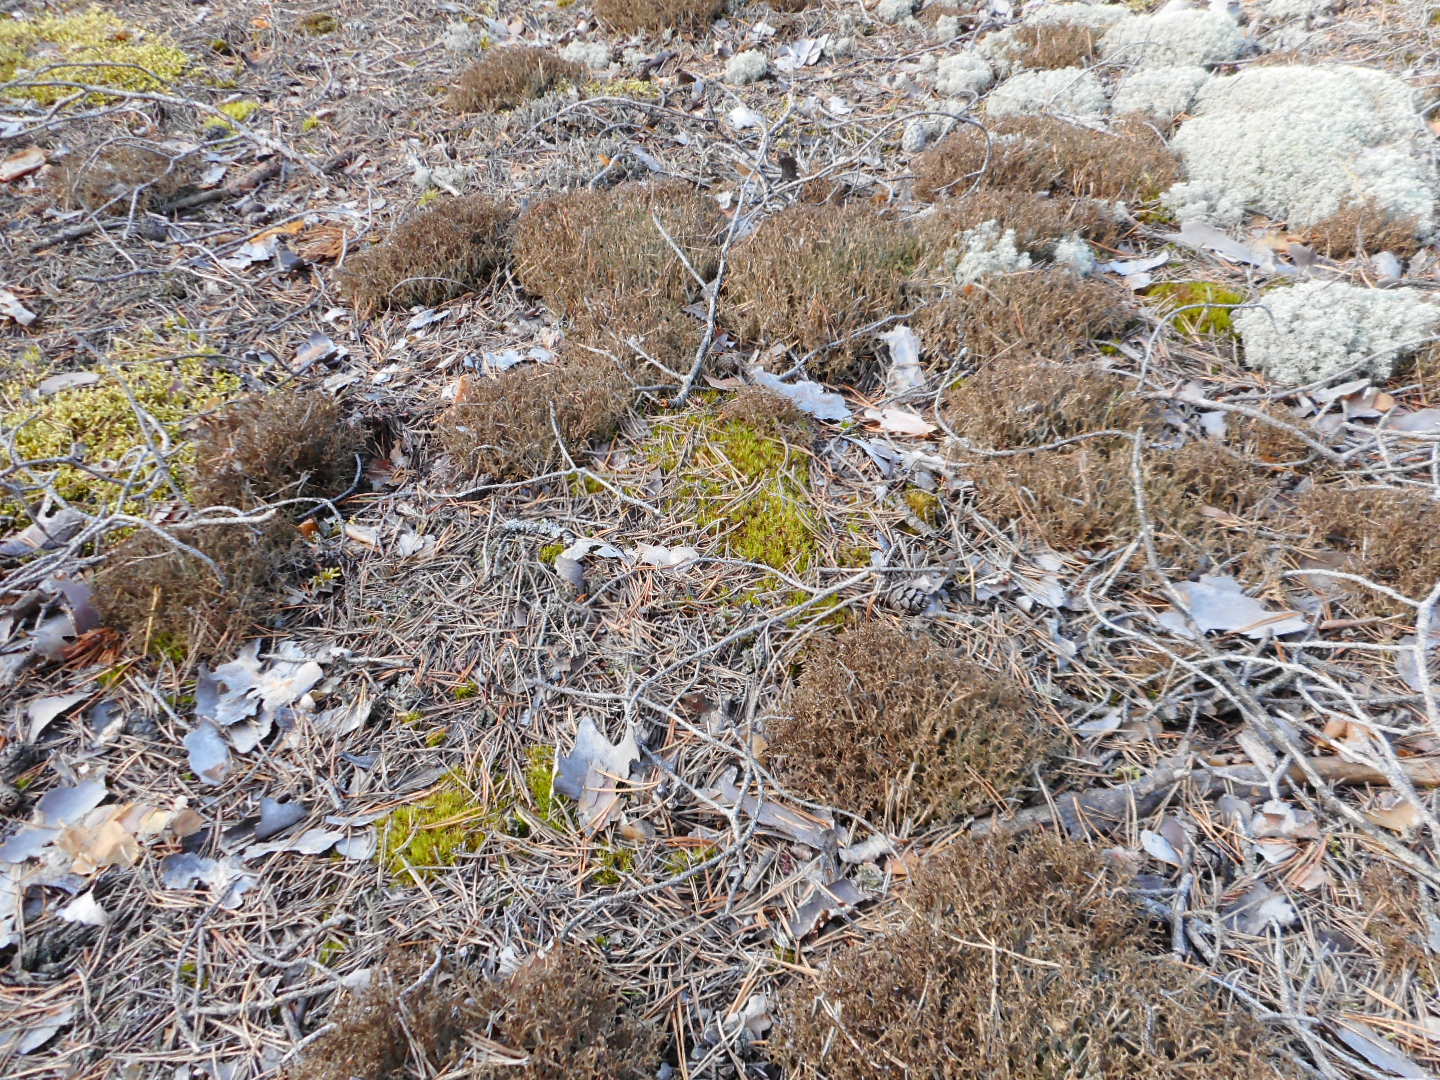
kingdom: Fungi
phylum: Ascomycota
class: Lecanoromycetes
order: Lecanorales
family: Parmeliaceae
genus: Cetraria
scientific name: Cetraria islandica
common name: Iceland lichen
